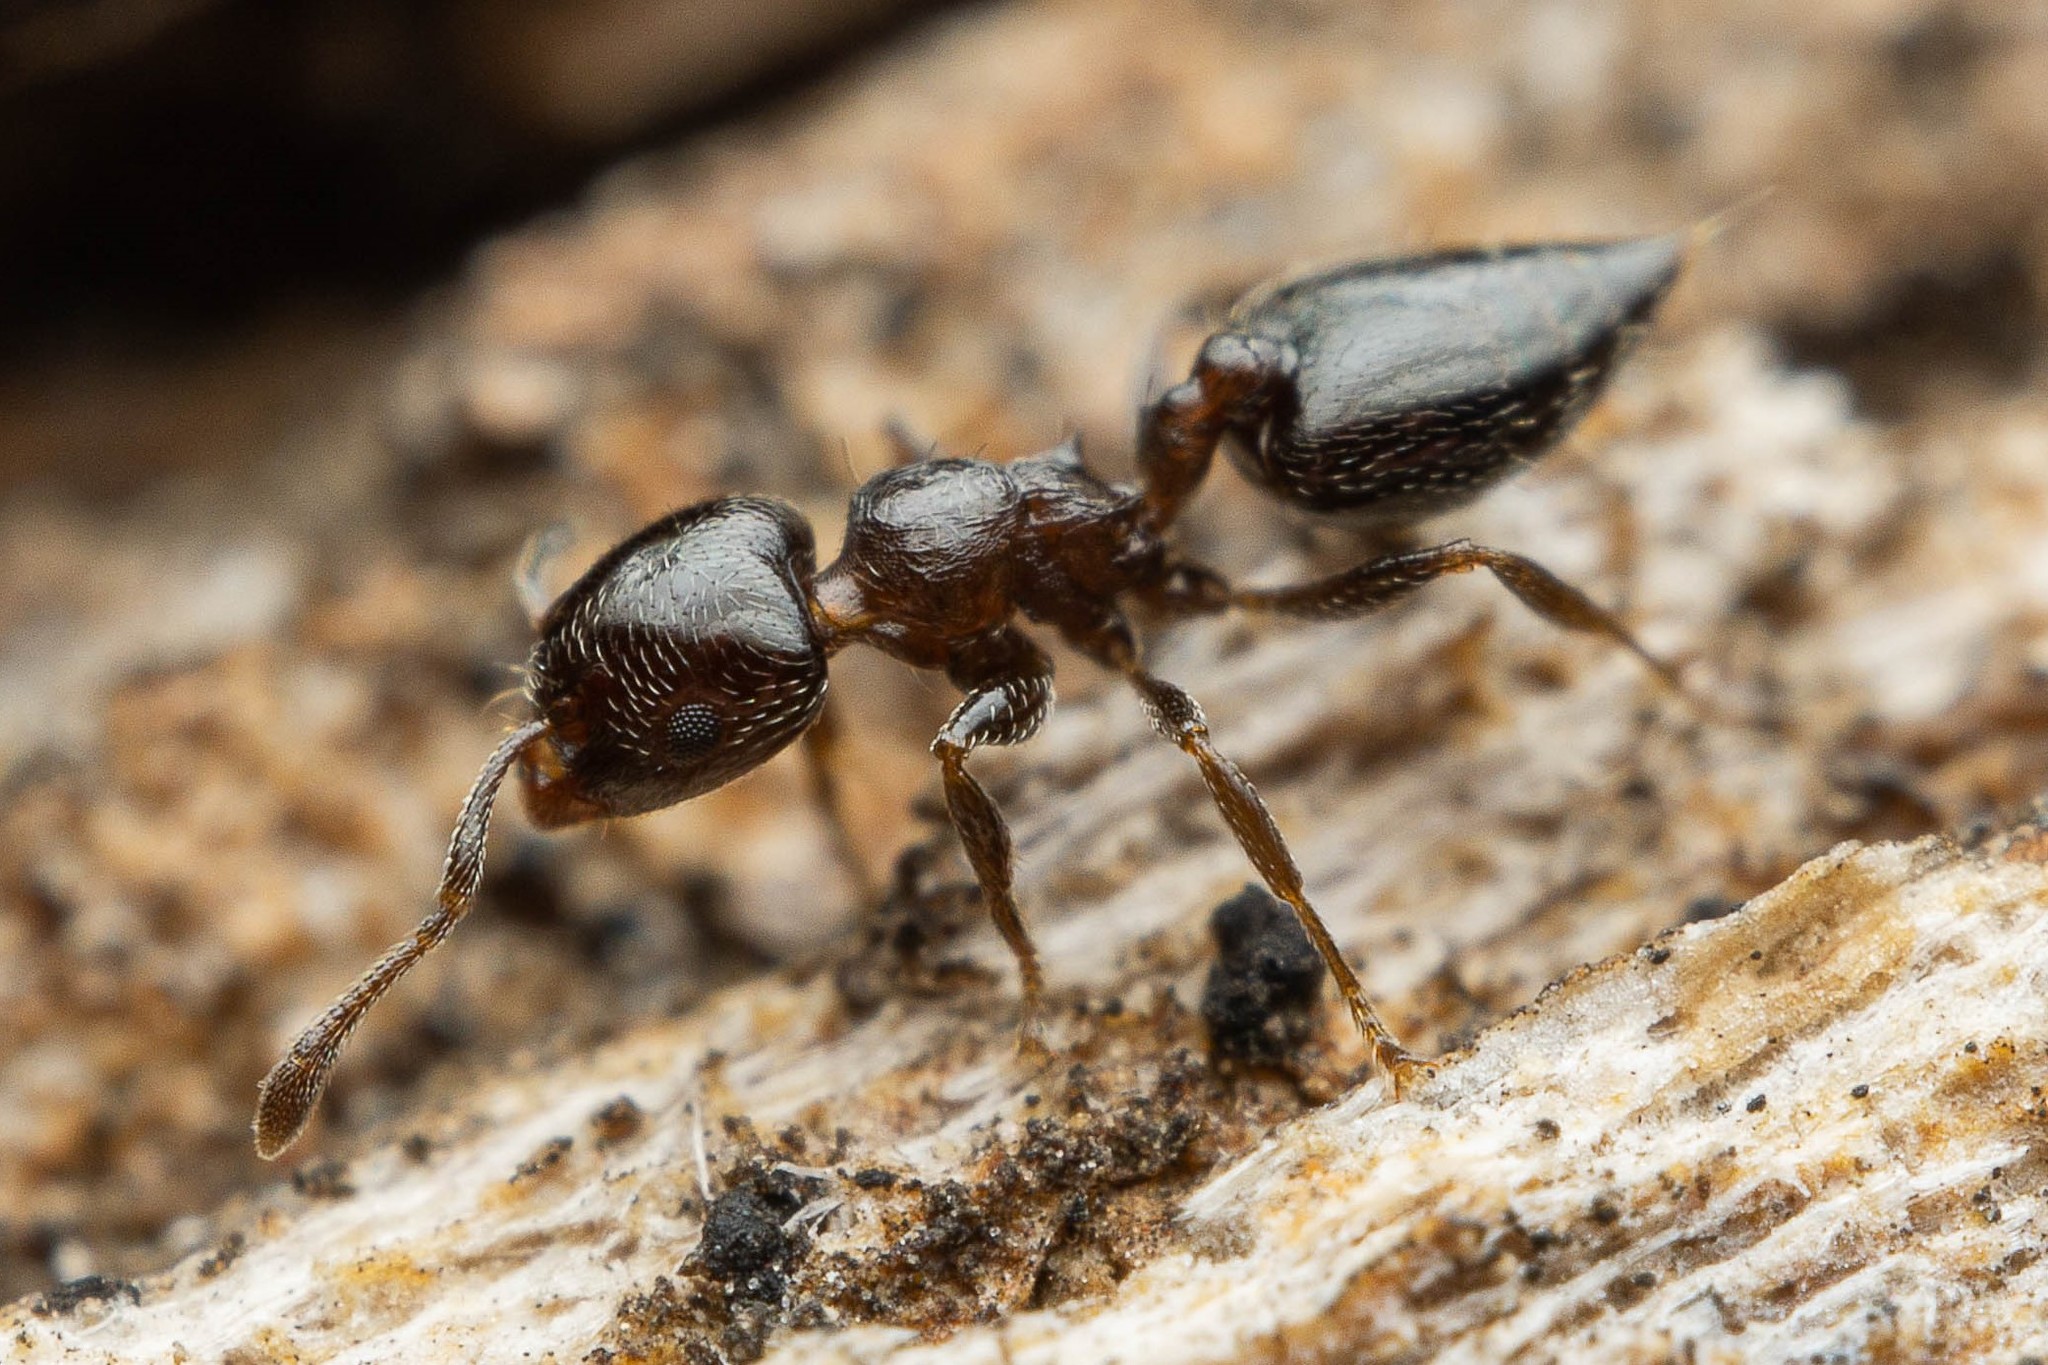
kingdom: Animalia
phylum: Arthropoda
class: Insecta
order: Hymenoptera
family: Formicidae
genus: Crematogaster
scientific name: Crematogaster torosa
